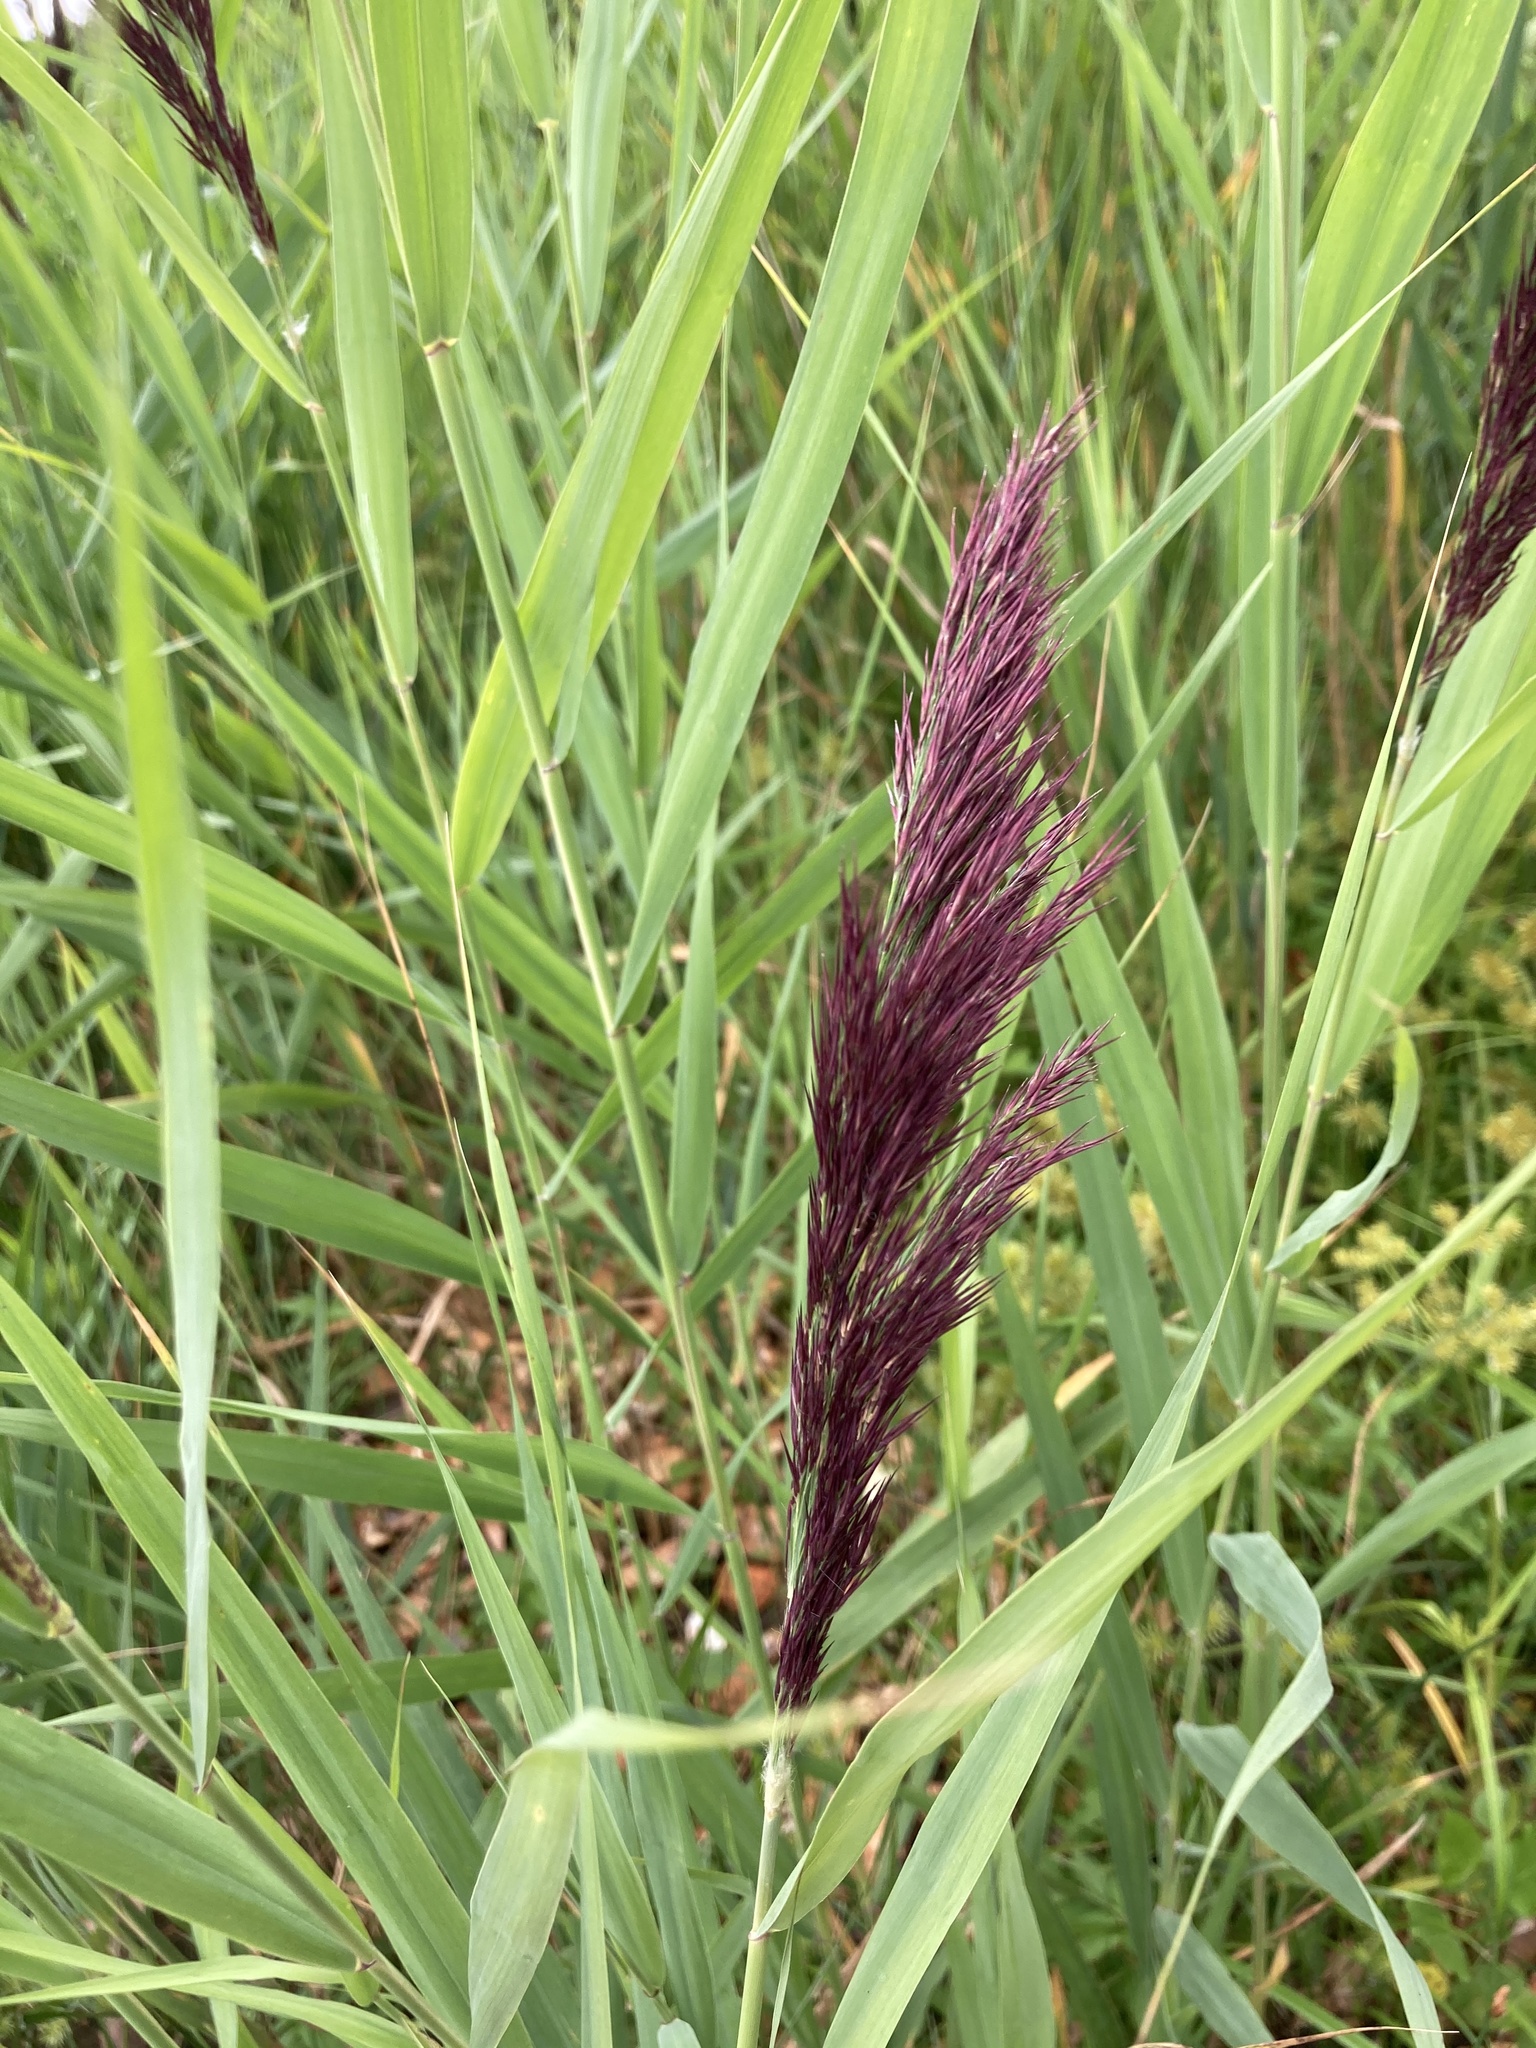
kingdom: Plantae
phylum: Tracheophyta
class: Liliopsida
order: Poales
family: Poaceae
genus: Phragmites
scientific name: Phragmites australis
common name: Common reed
